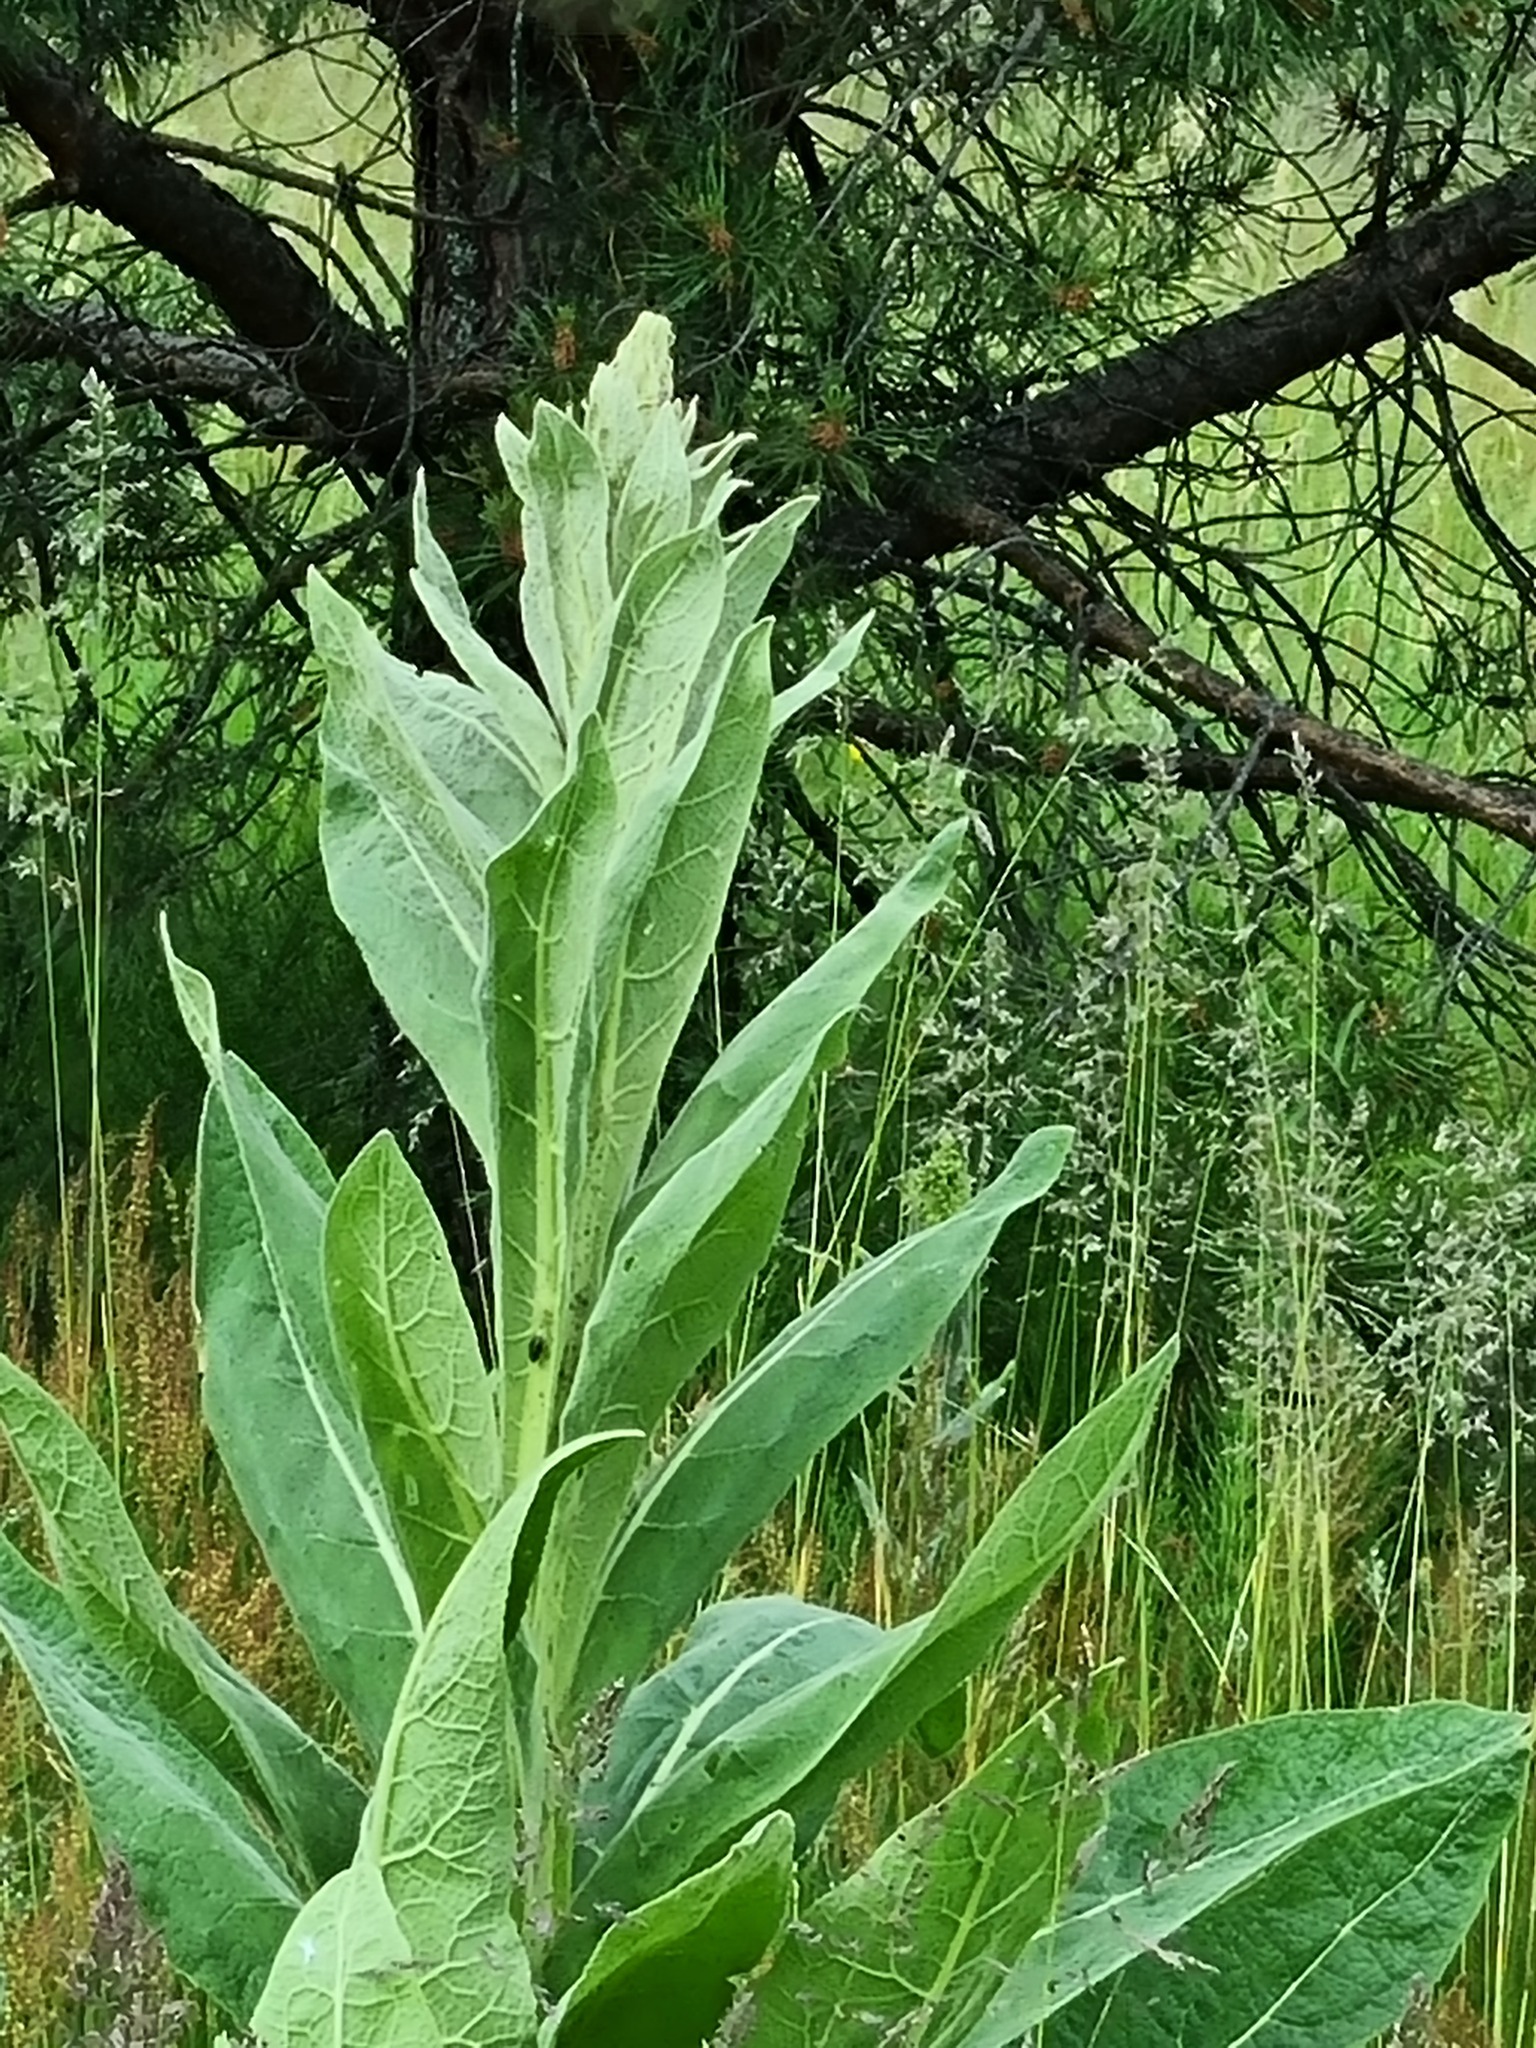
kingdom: Plantae
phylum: Tracheophyta
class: Magnoliopsida
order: Lamiales
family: Scrophulariaceae
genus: Verbascum
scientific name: Verbascum thapsus
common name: Common mullein
